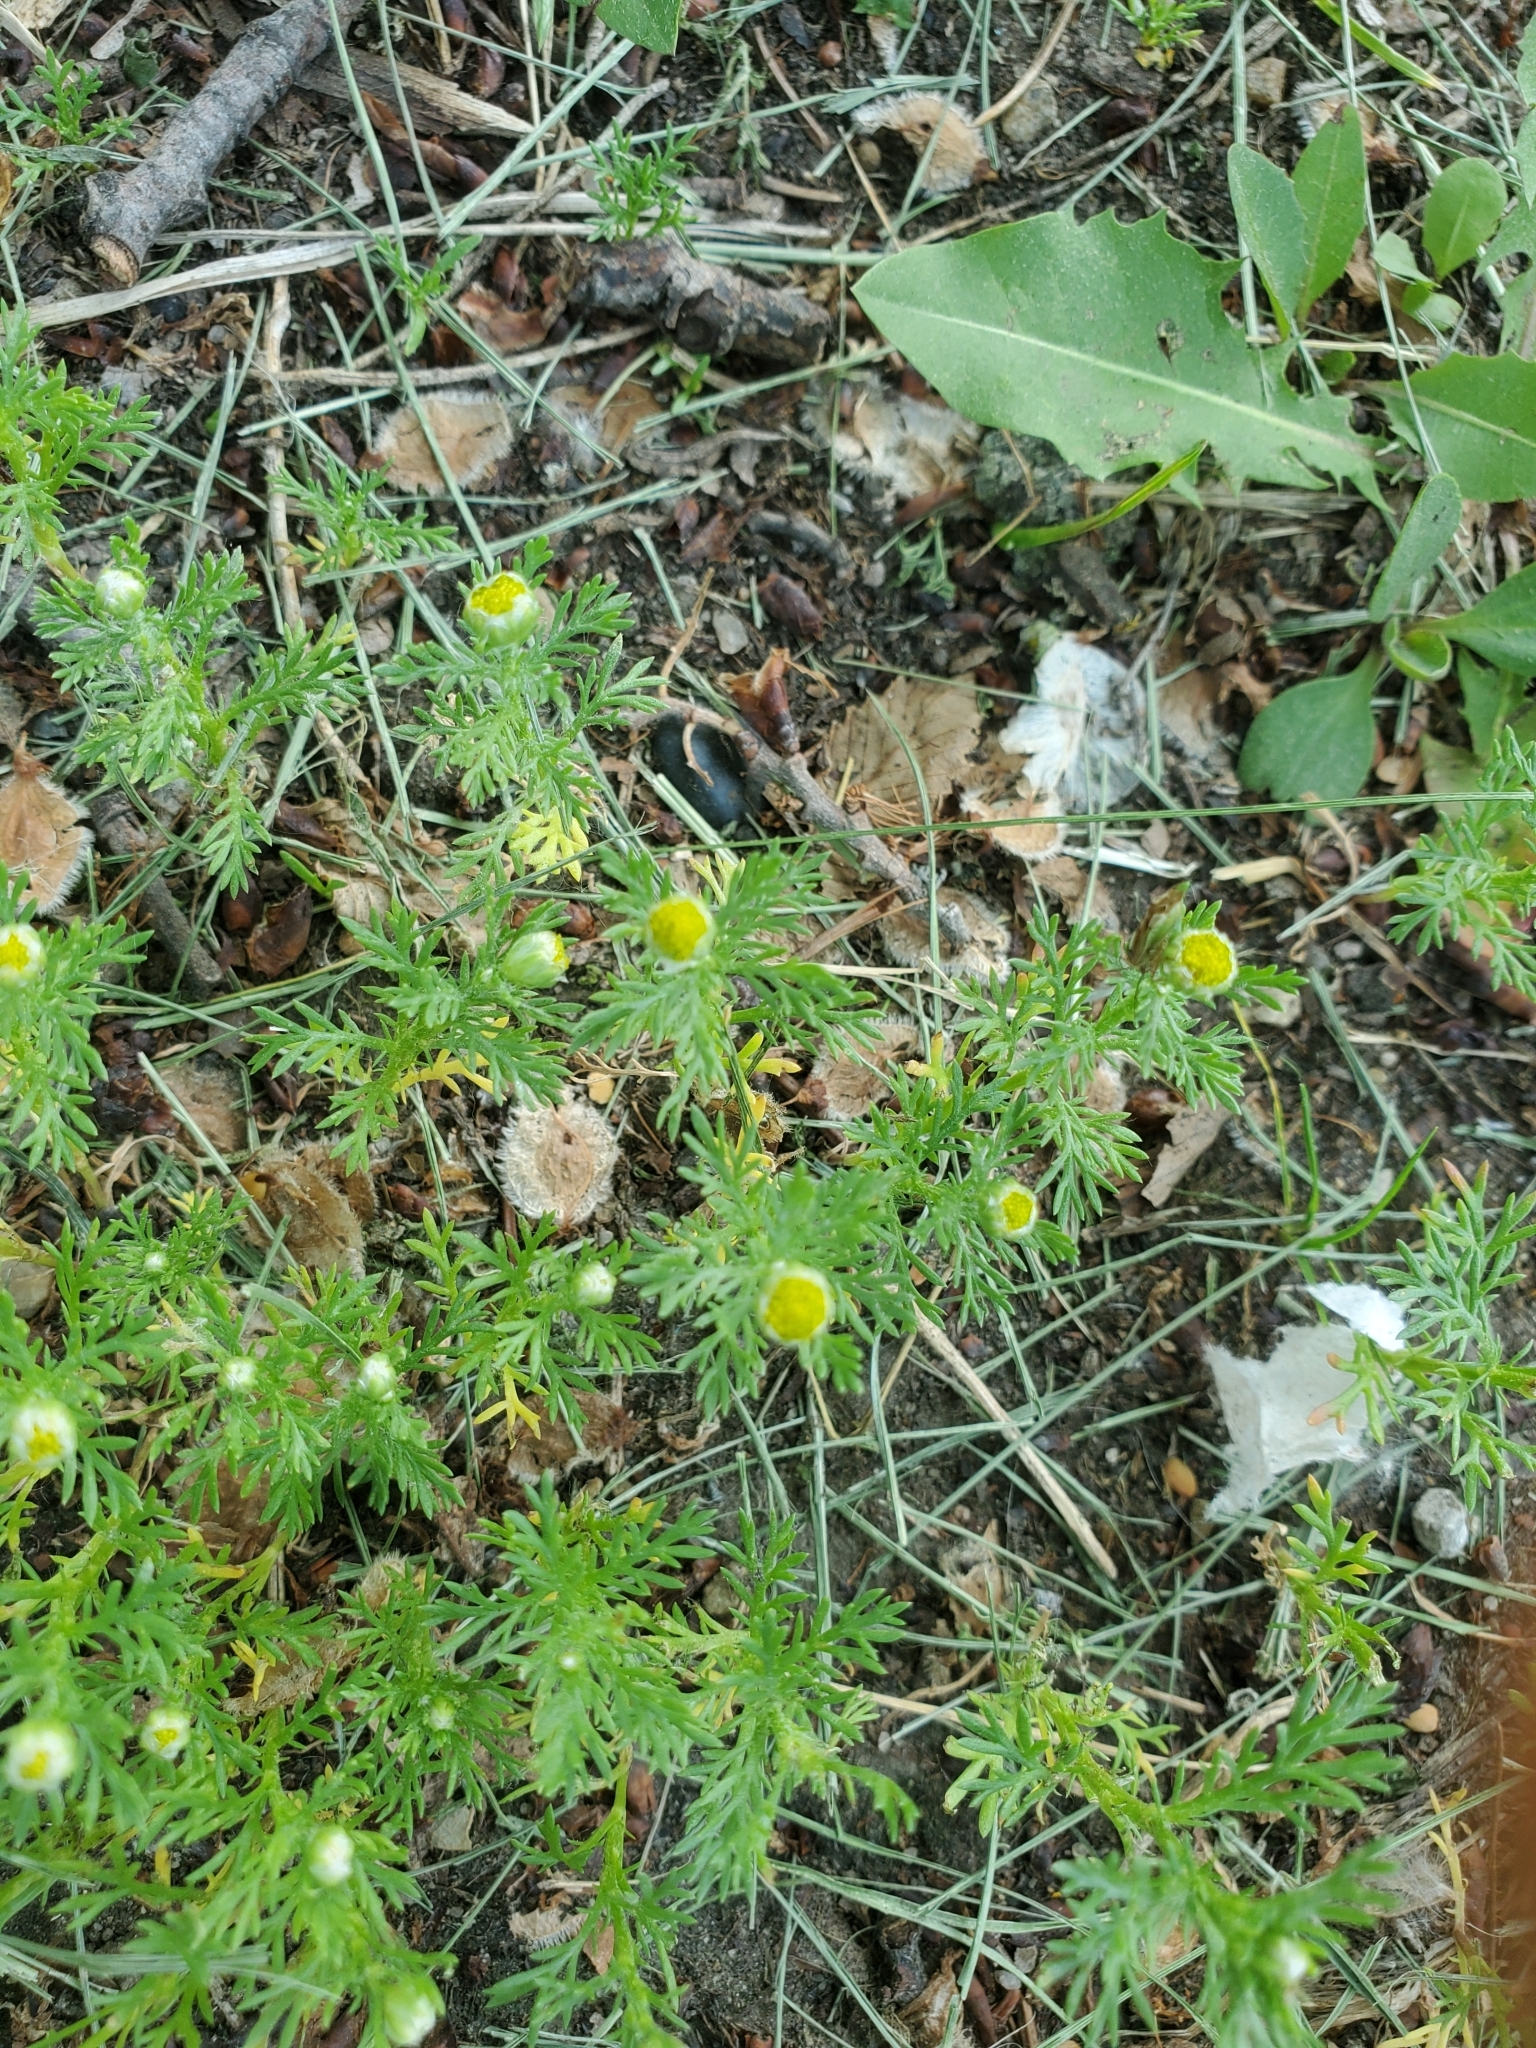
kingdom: Plantae
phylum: Tracheophyta
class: Magnoliopsida
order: Asterales
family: Asteraceae
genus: Matricaria
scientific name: Matricaria discoidea
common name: Disc mayweed
